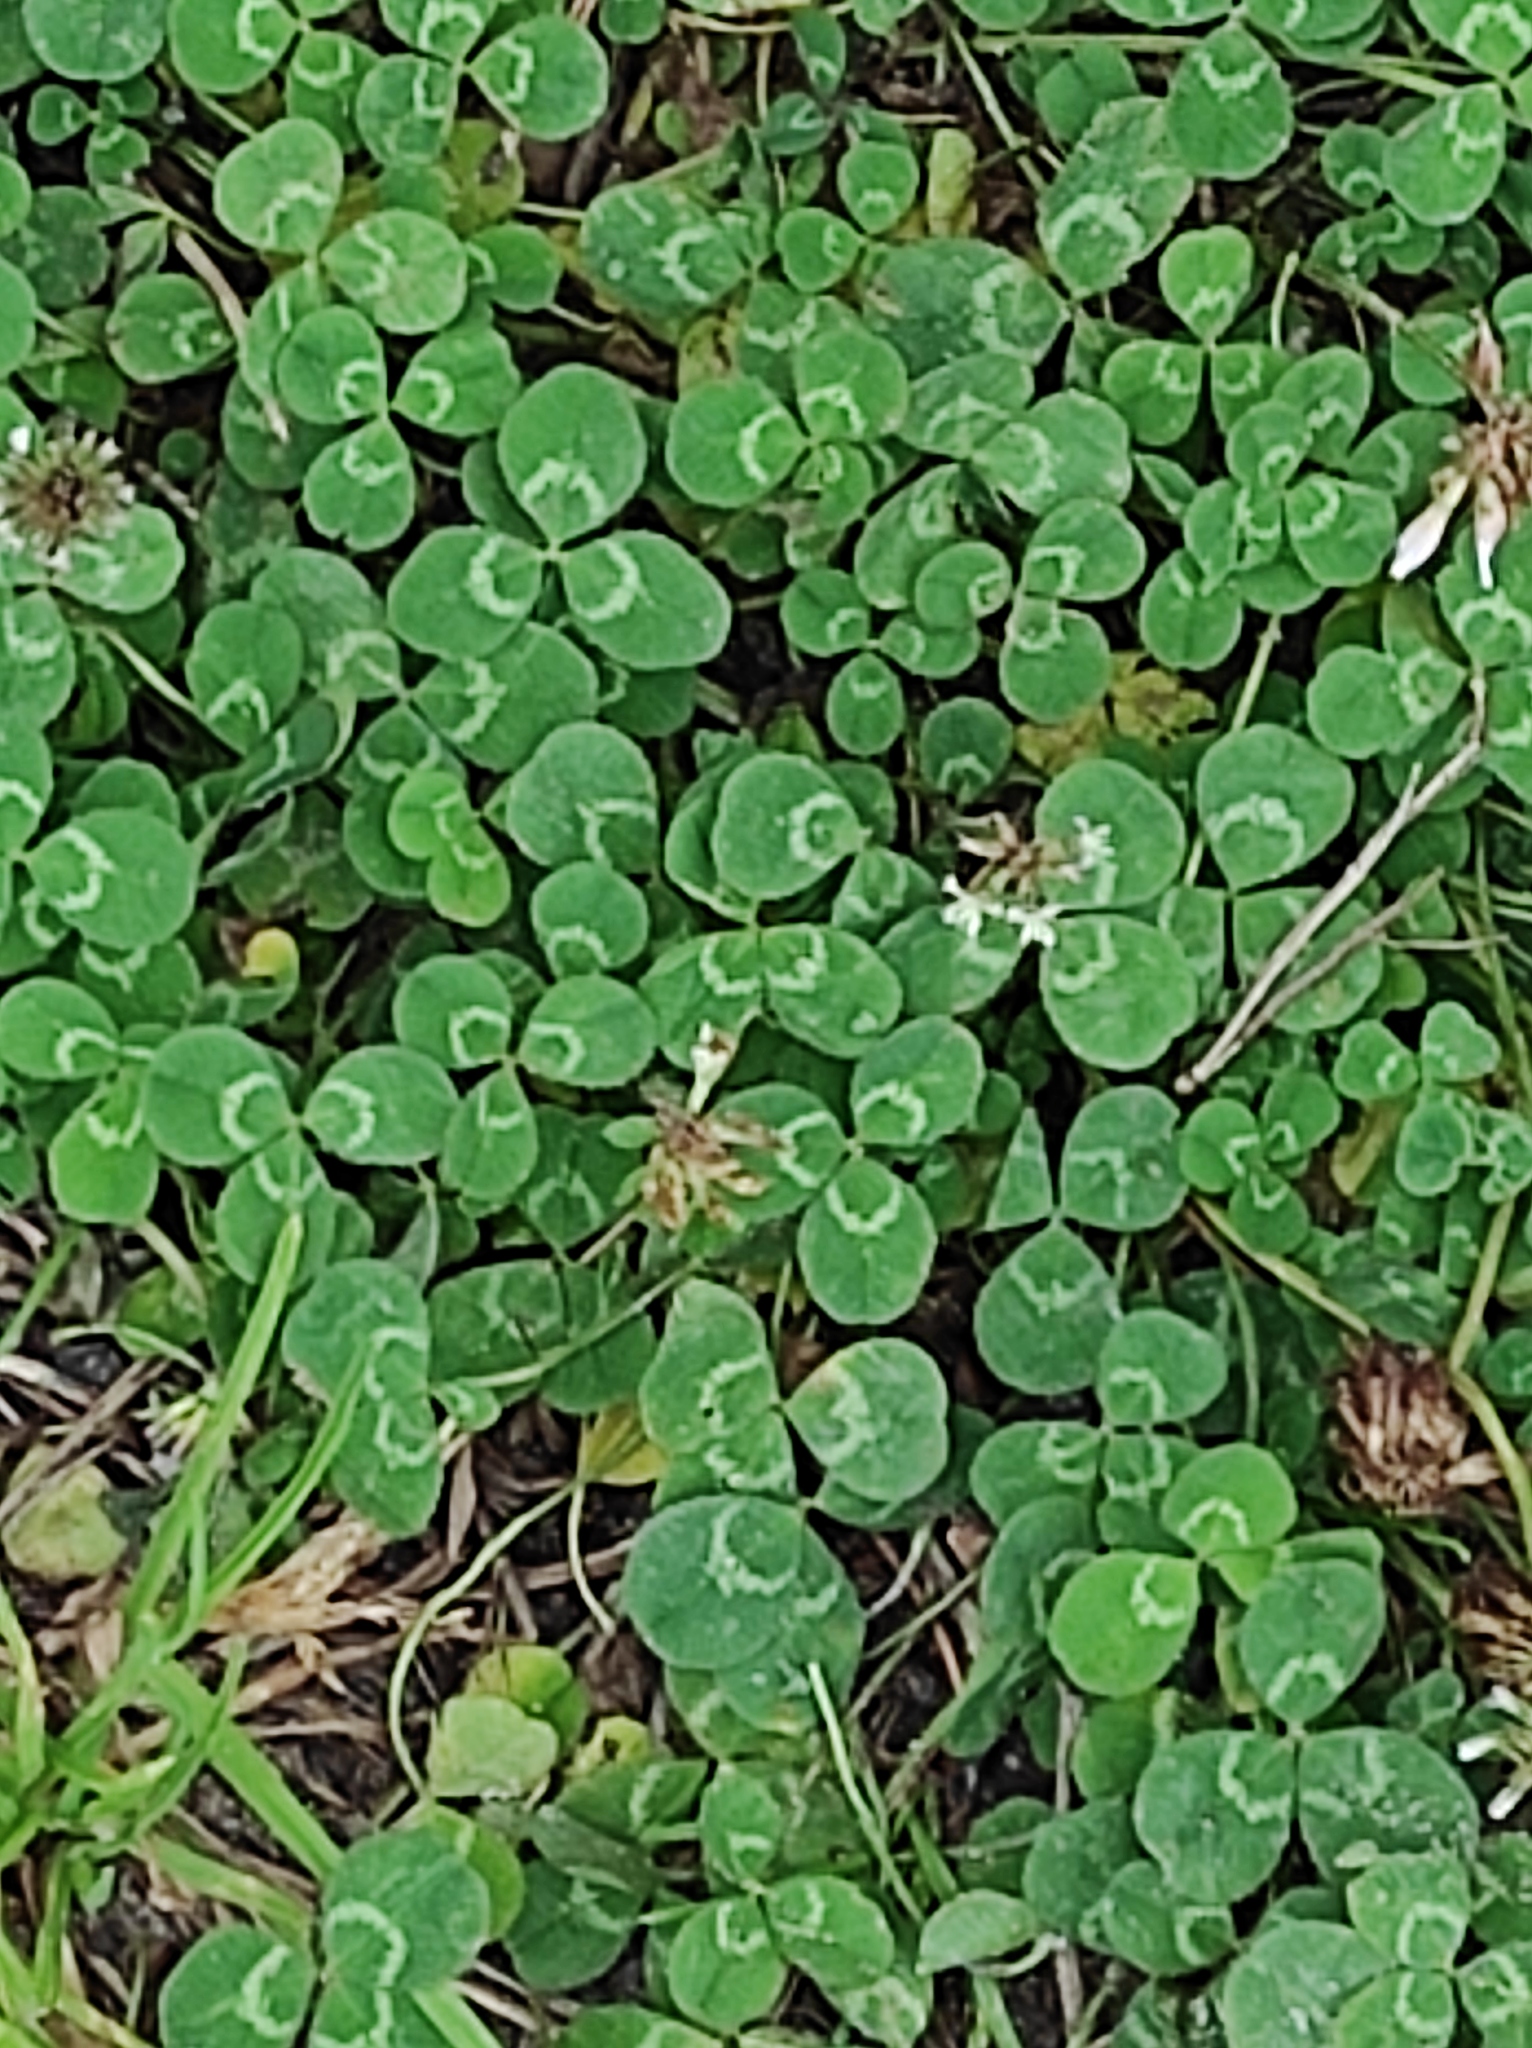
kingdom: Plantae
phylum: Tracheophyta
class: Magnoliopsida
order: Fabales
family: Fabaceae
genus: Trifolium
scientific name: Trifolium repens
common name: White clover
